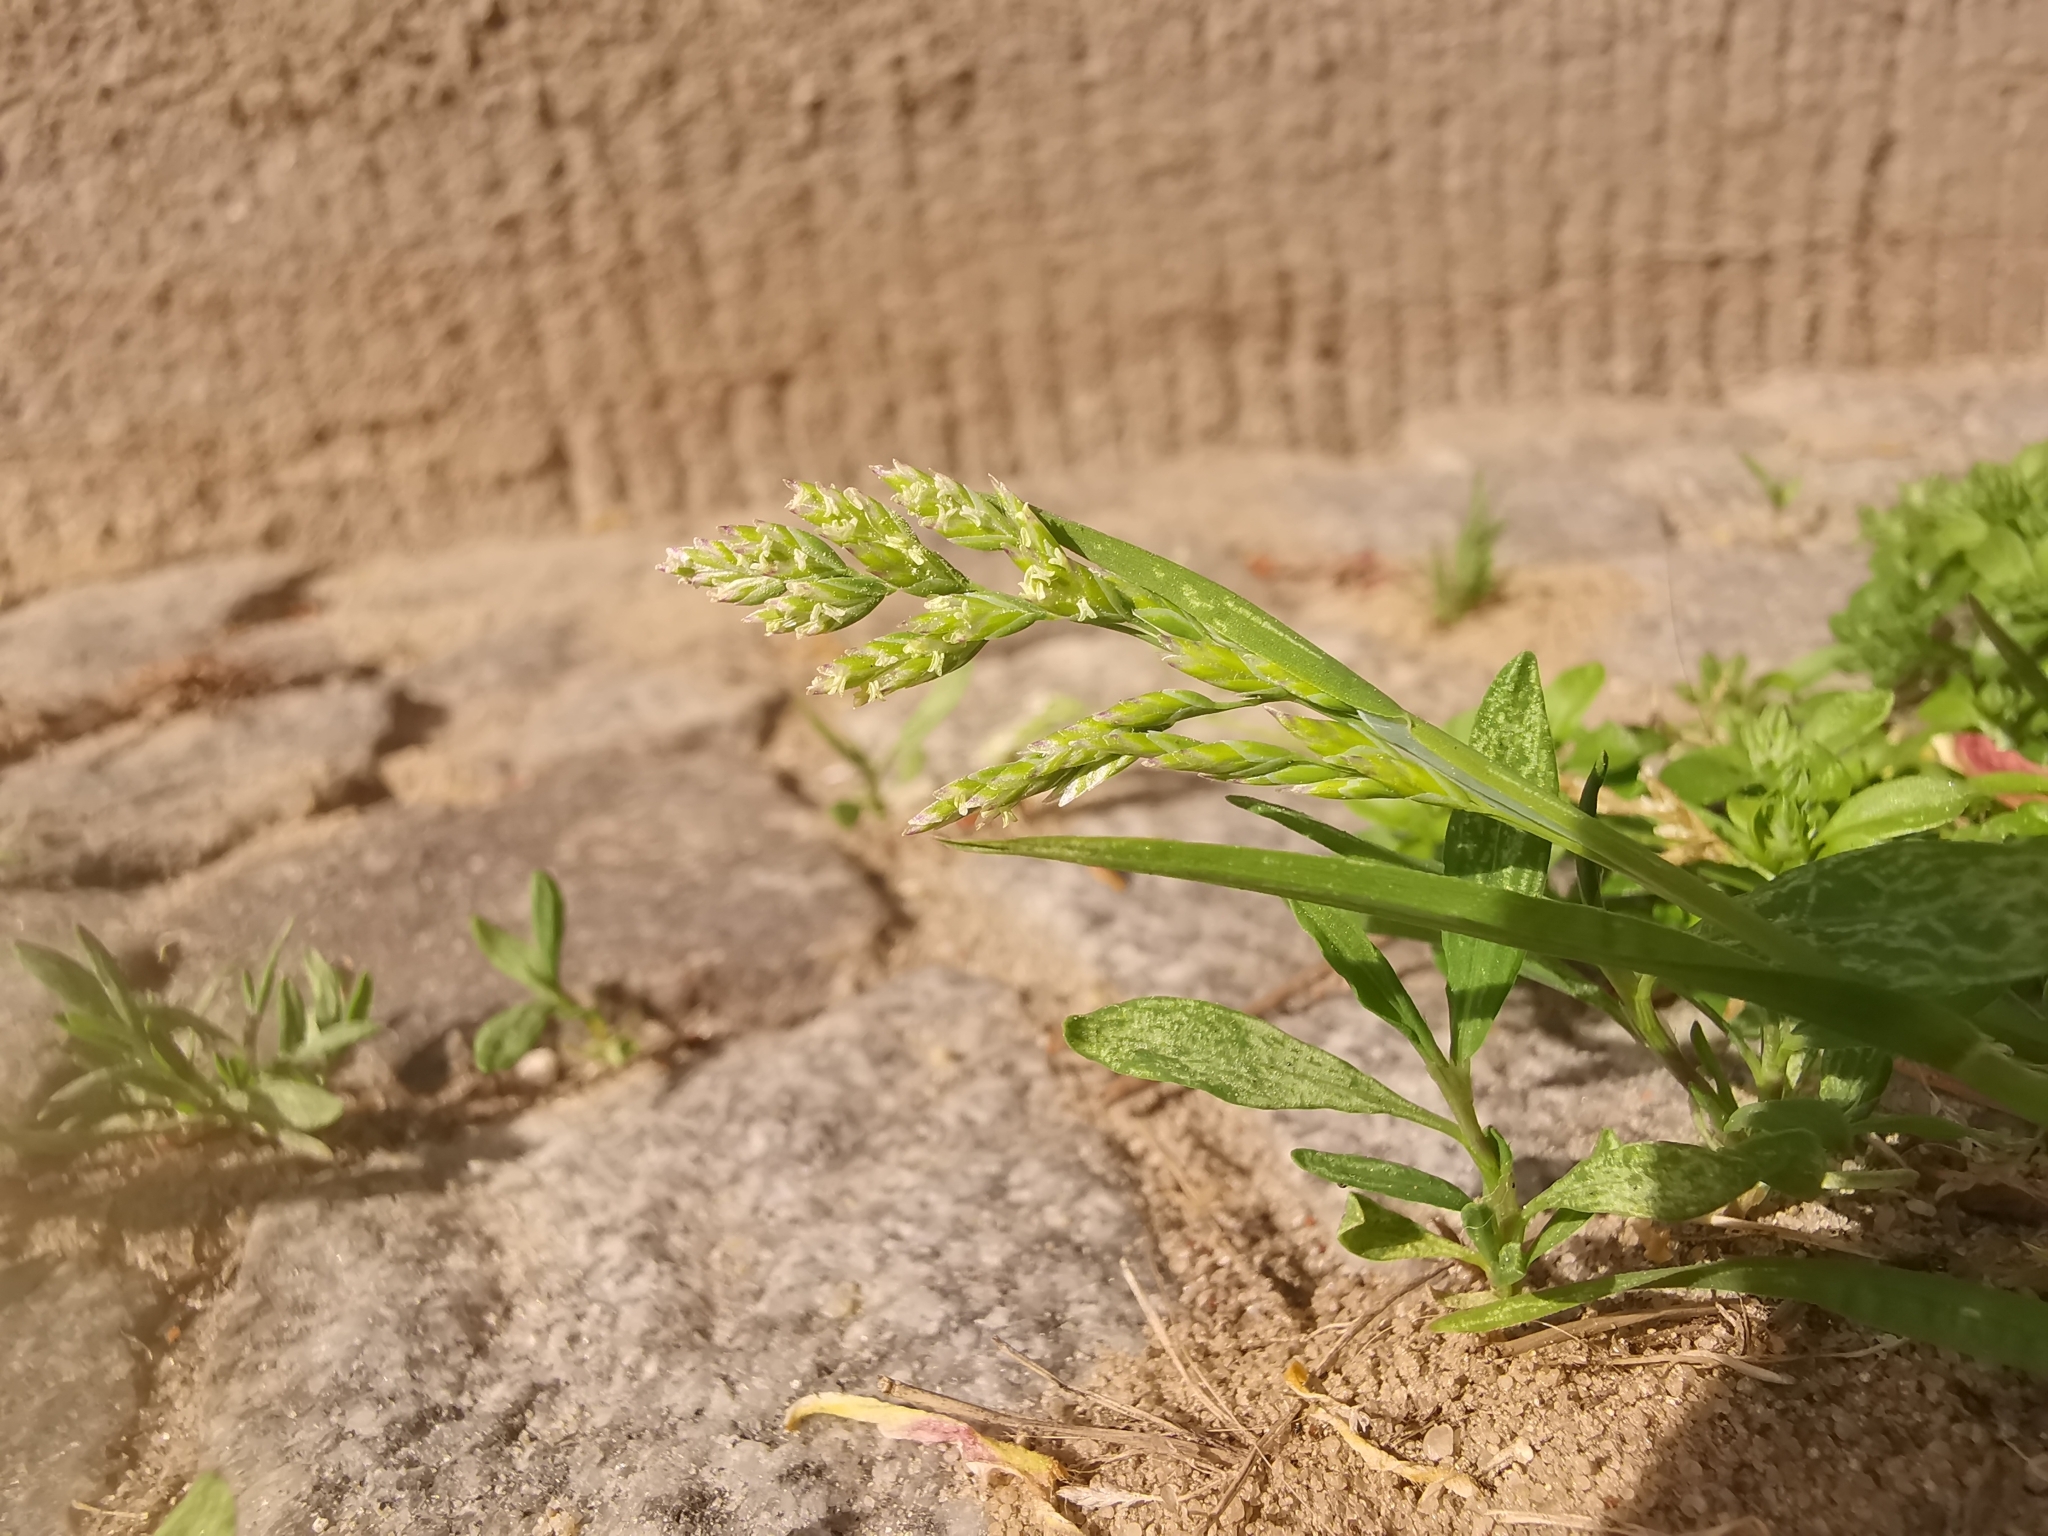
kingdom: Plantae
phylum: Tracheophyta
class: Liliopsida
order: Poales
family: Poaceae
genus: Poa
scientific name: Poa annua
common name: Annual bluegrass
